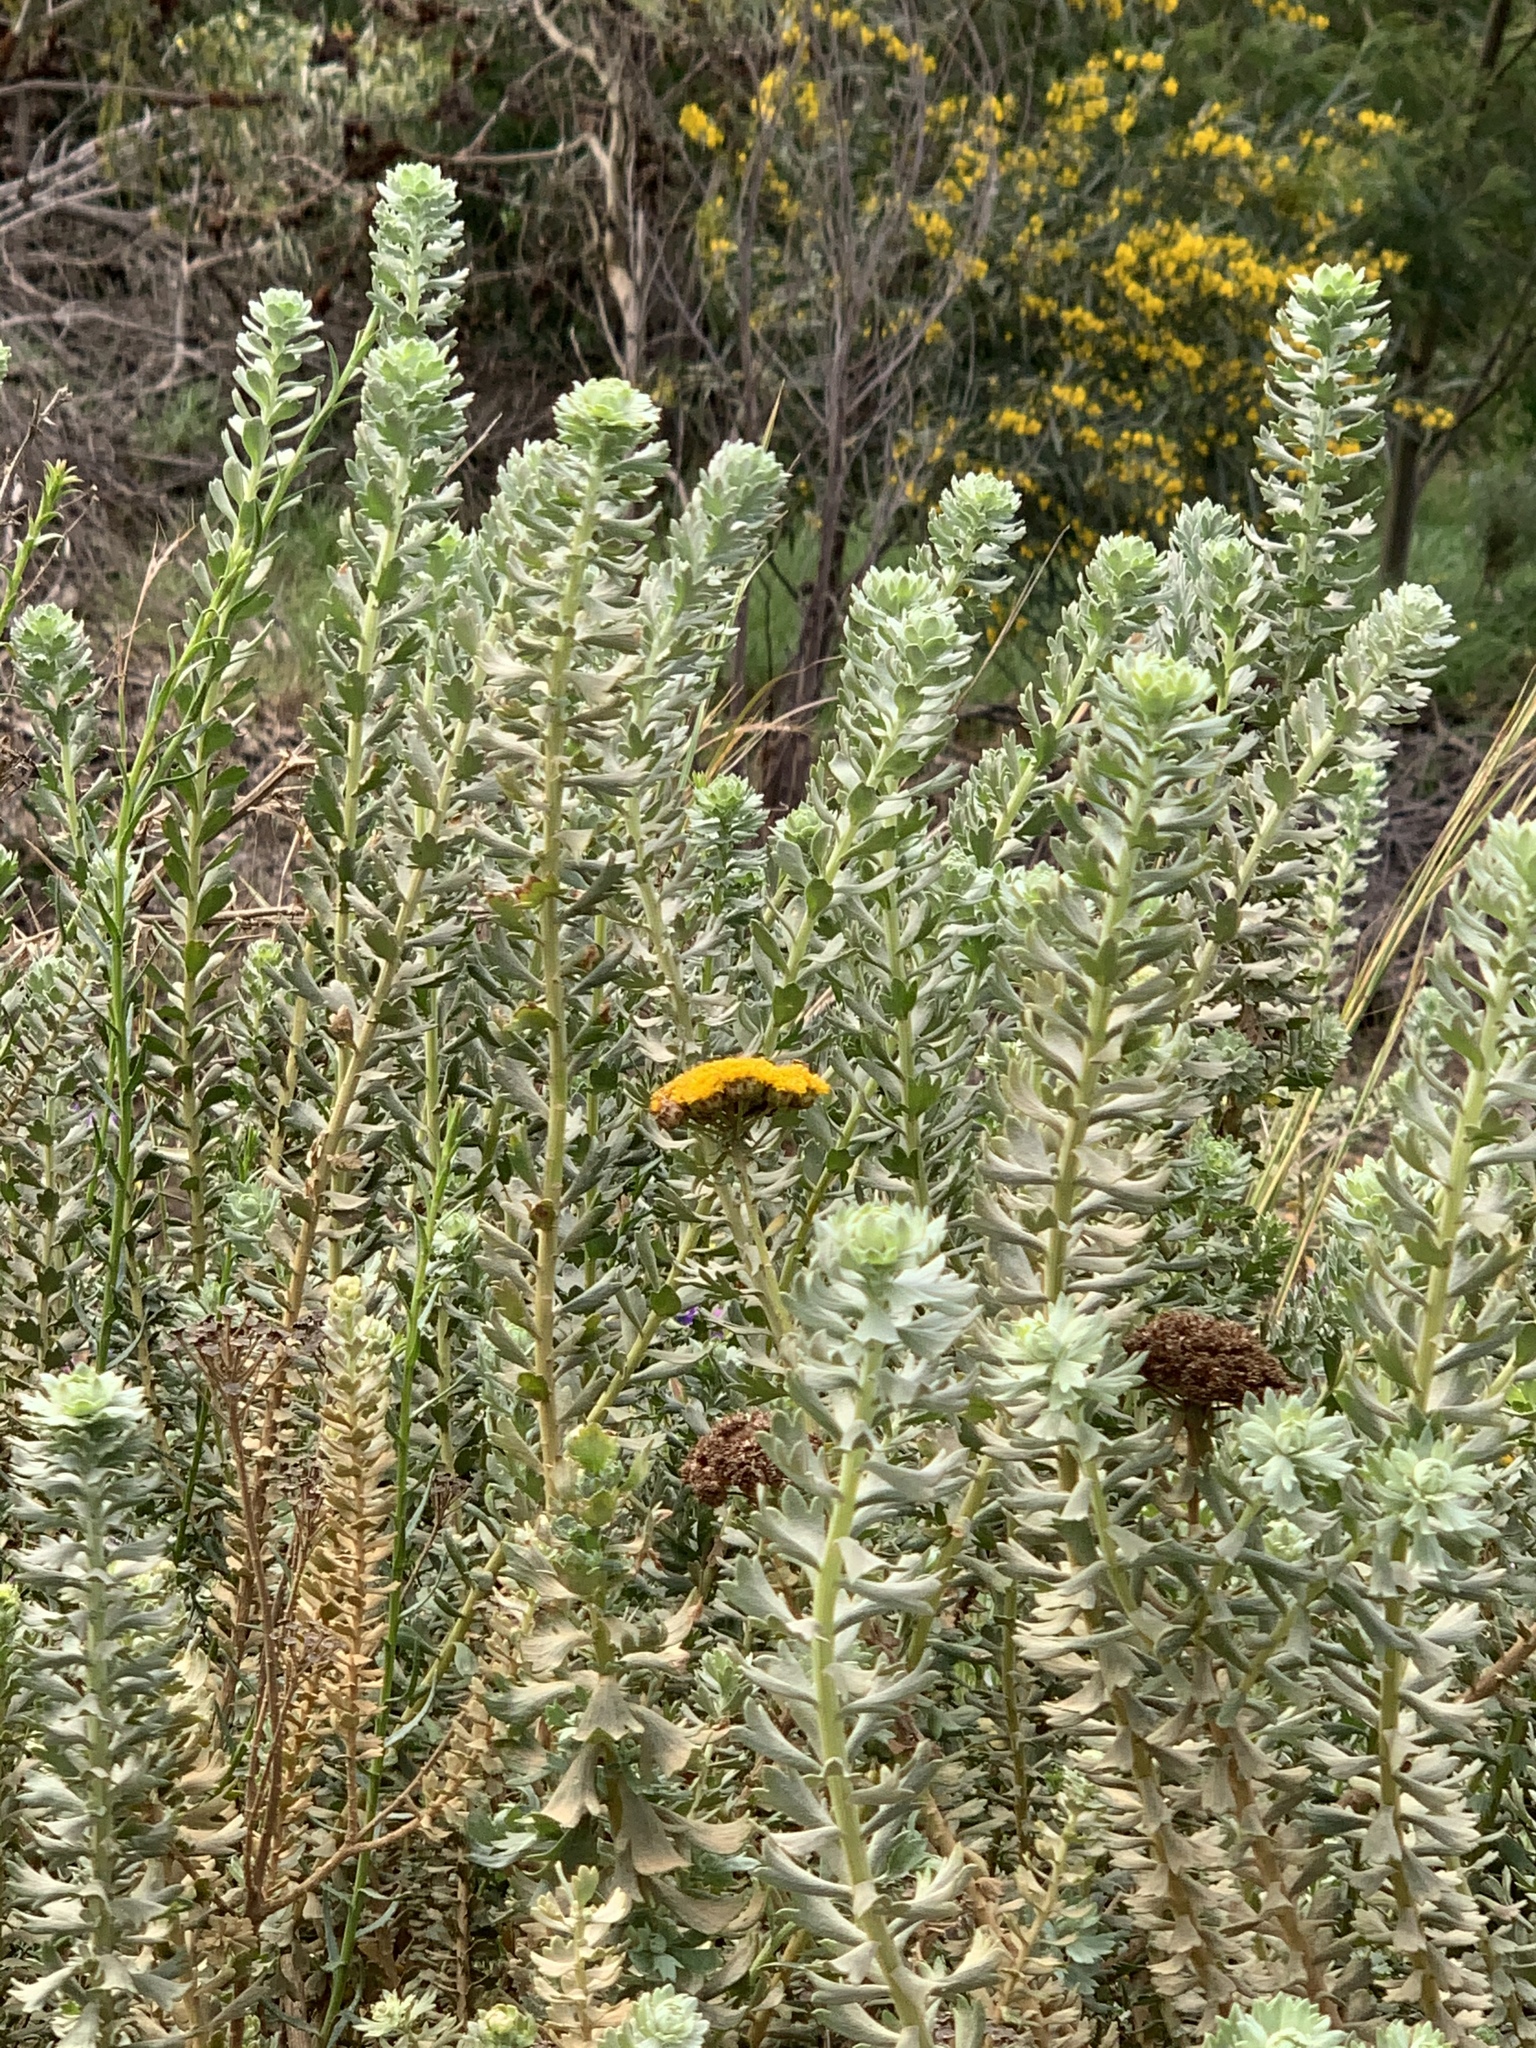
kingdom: Plantae
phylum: Tracheophyta
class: Magnoliopsida
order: Asterales
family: Asteraceae
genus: Athanasia
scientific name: Athanasia trifurcata
